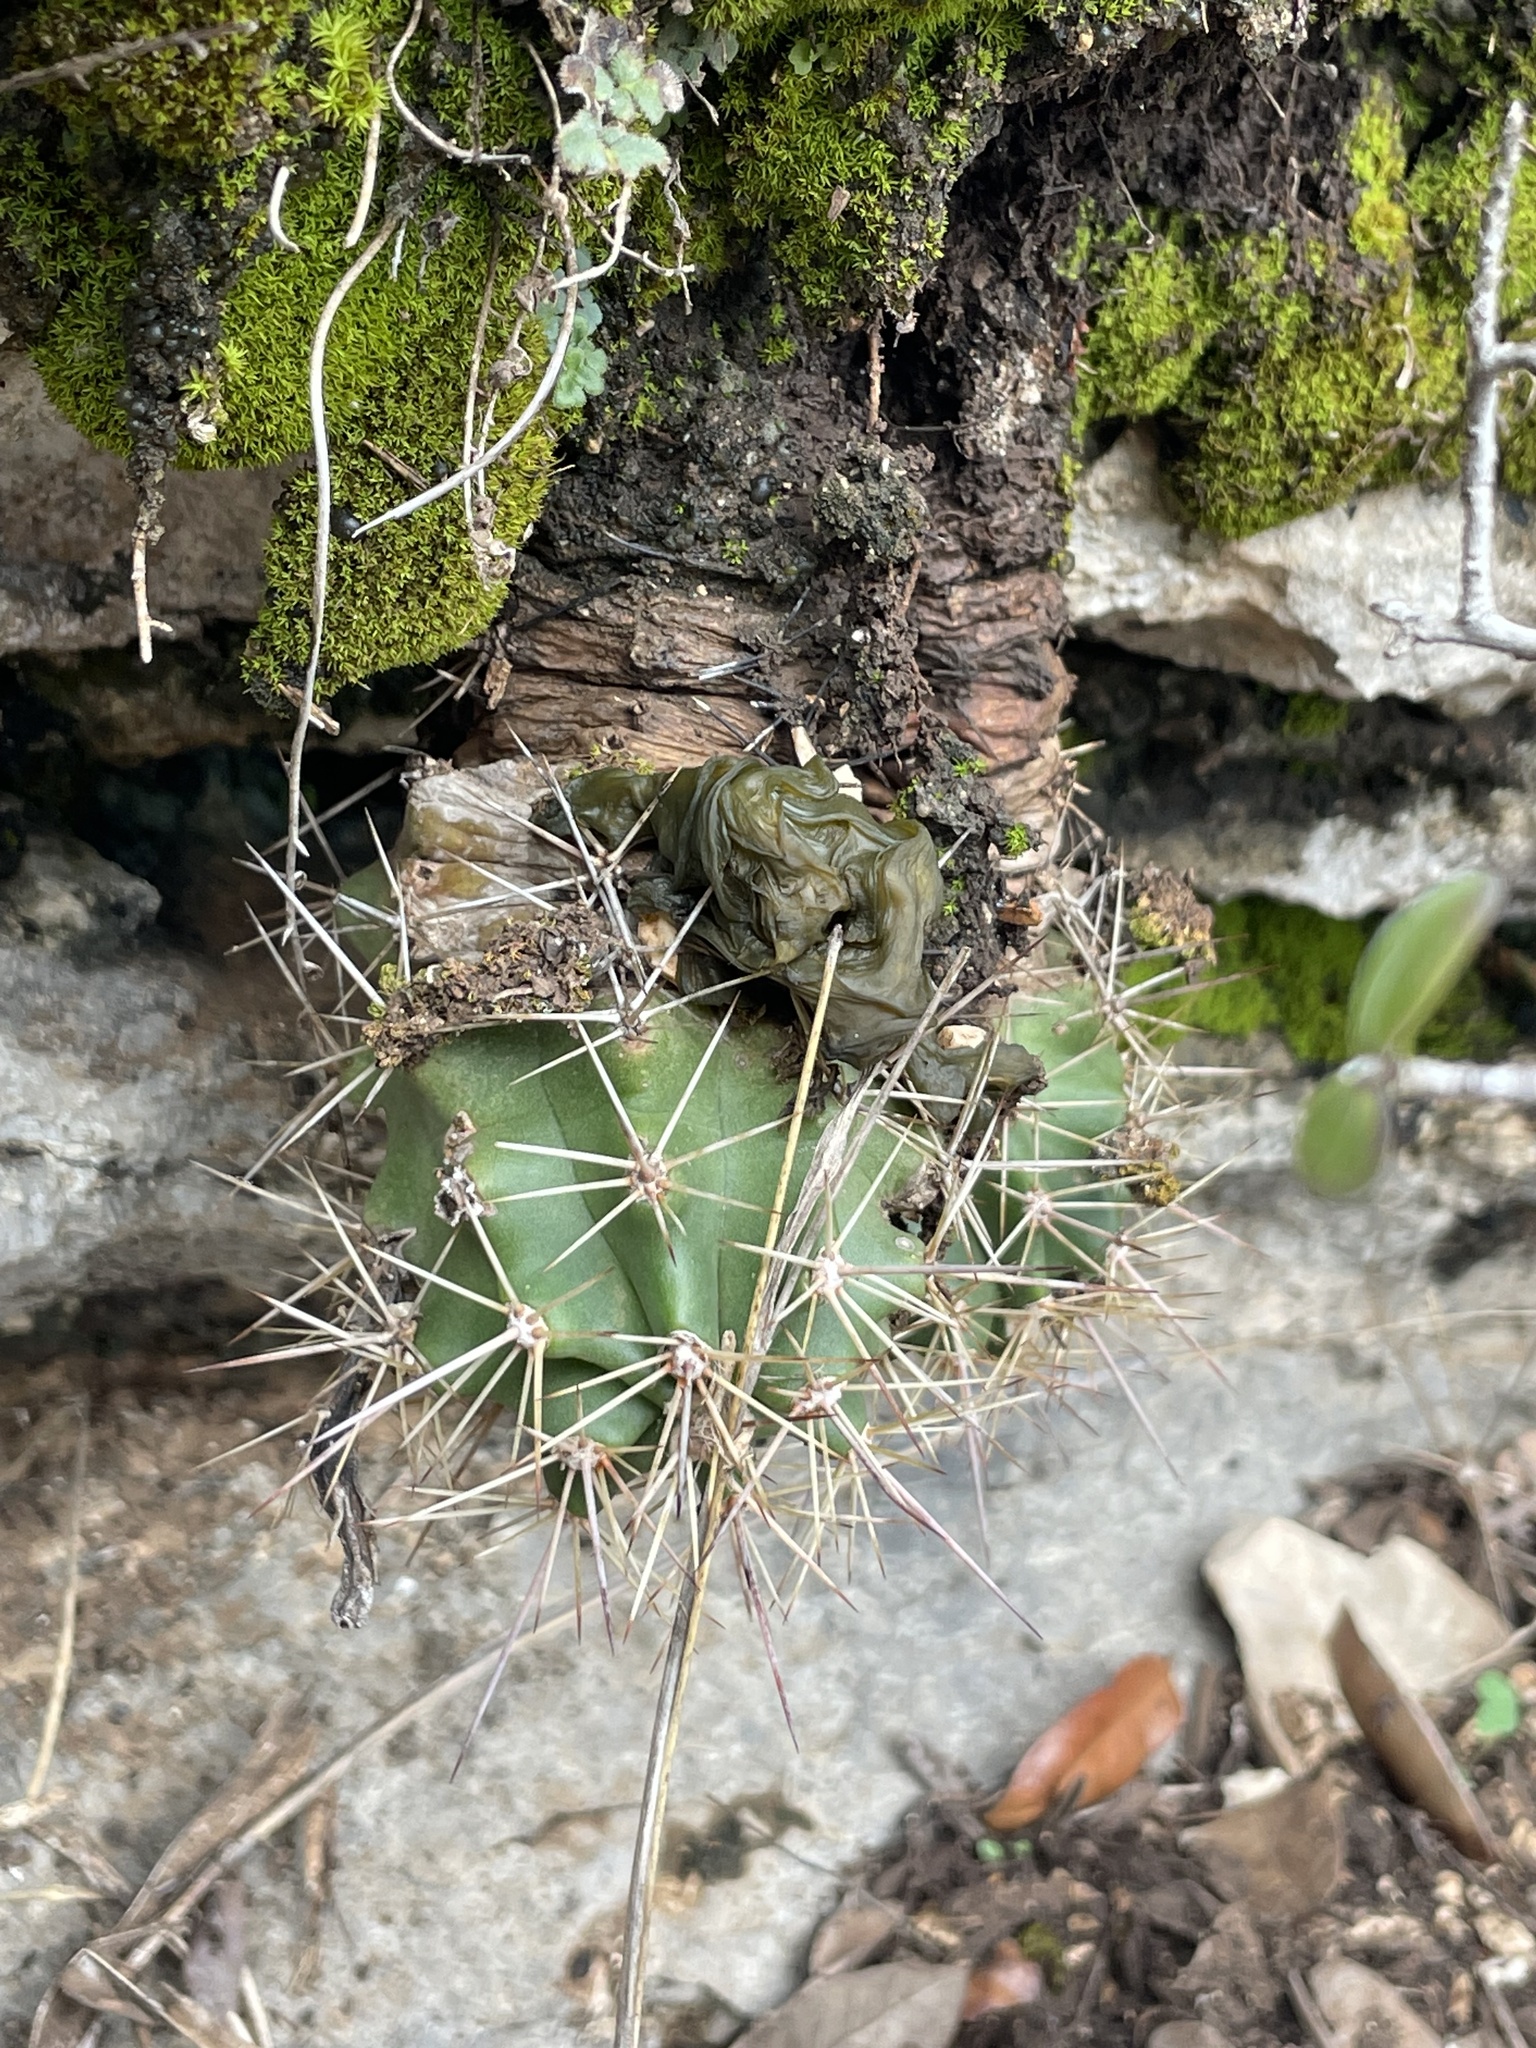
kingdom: Plantae
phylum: Tracheophyta
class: Magnoliopsida
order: Caryophyllales
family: Cactaceae
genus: Echinocereus
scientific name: Echinocereus coccineus
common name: Scarlet hedgehog cactus
